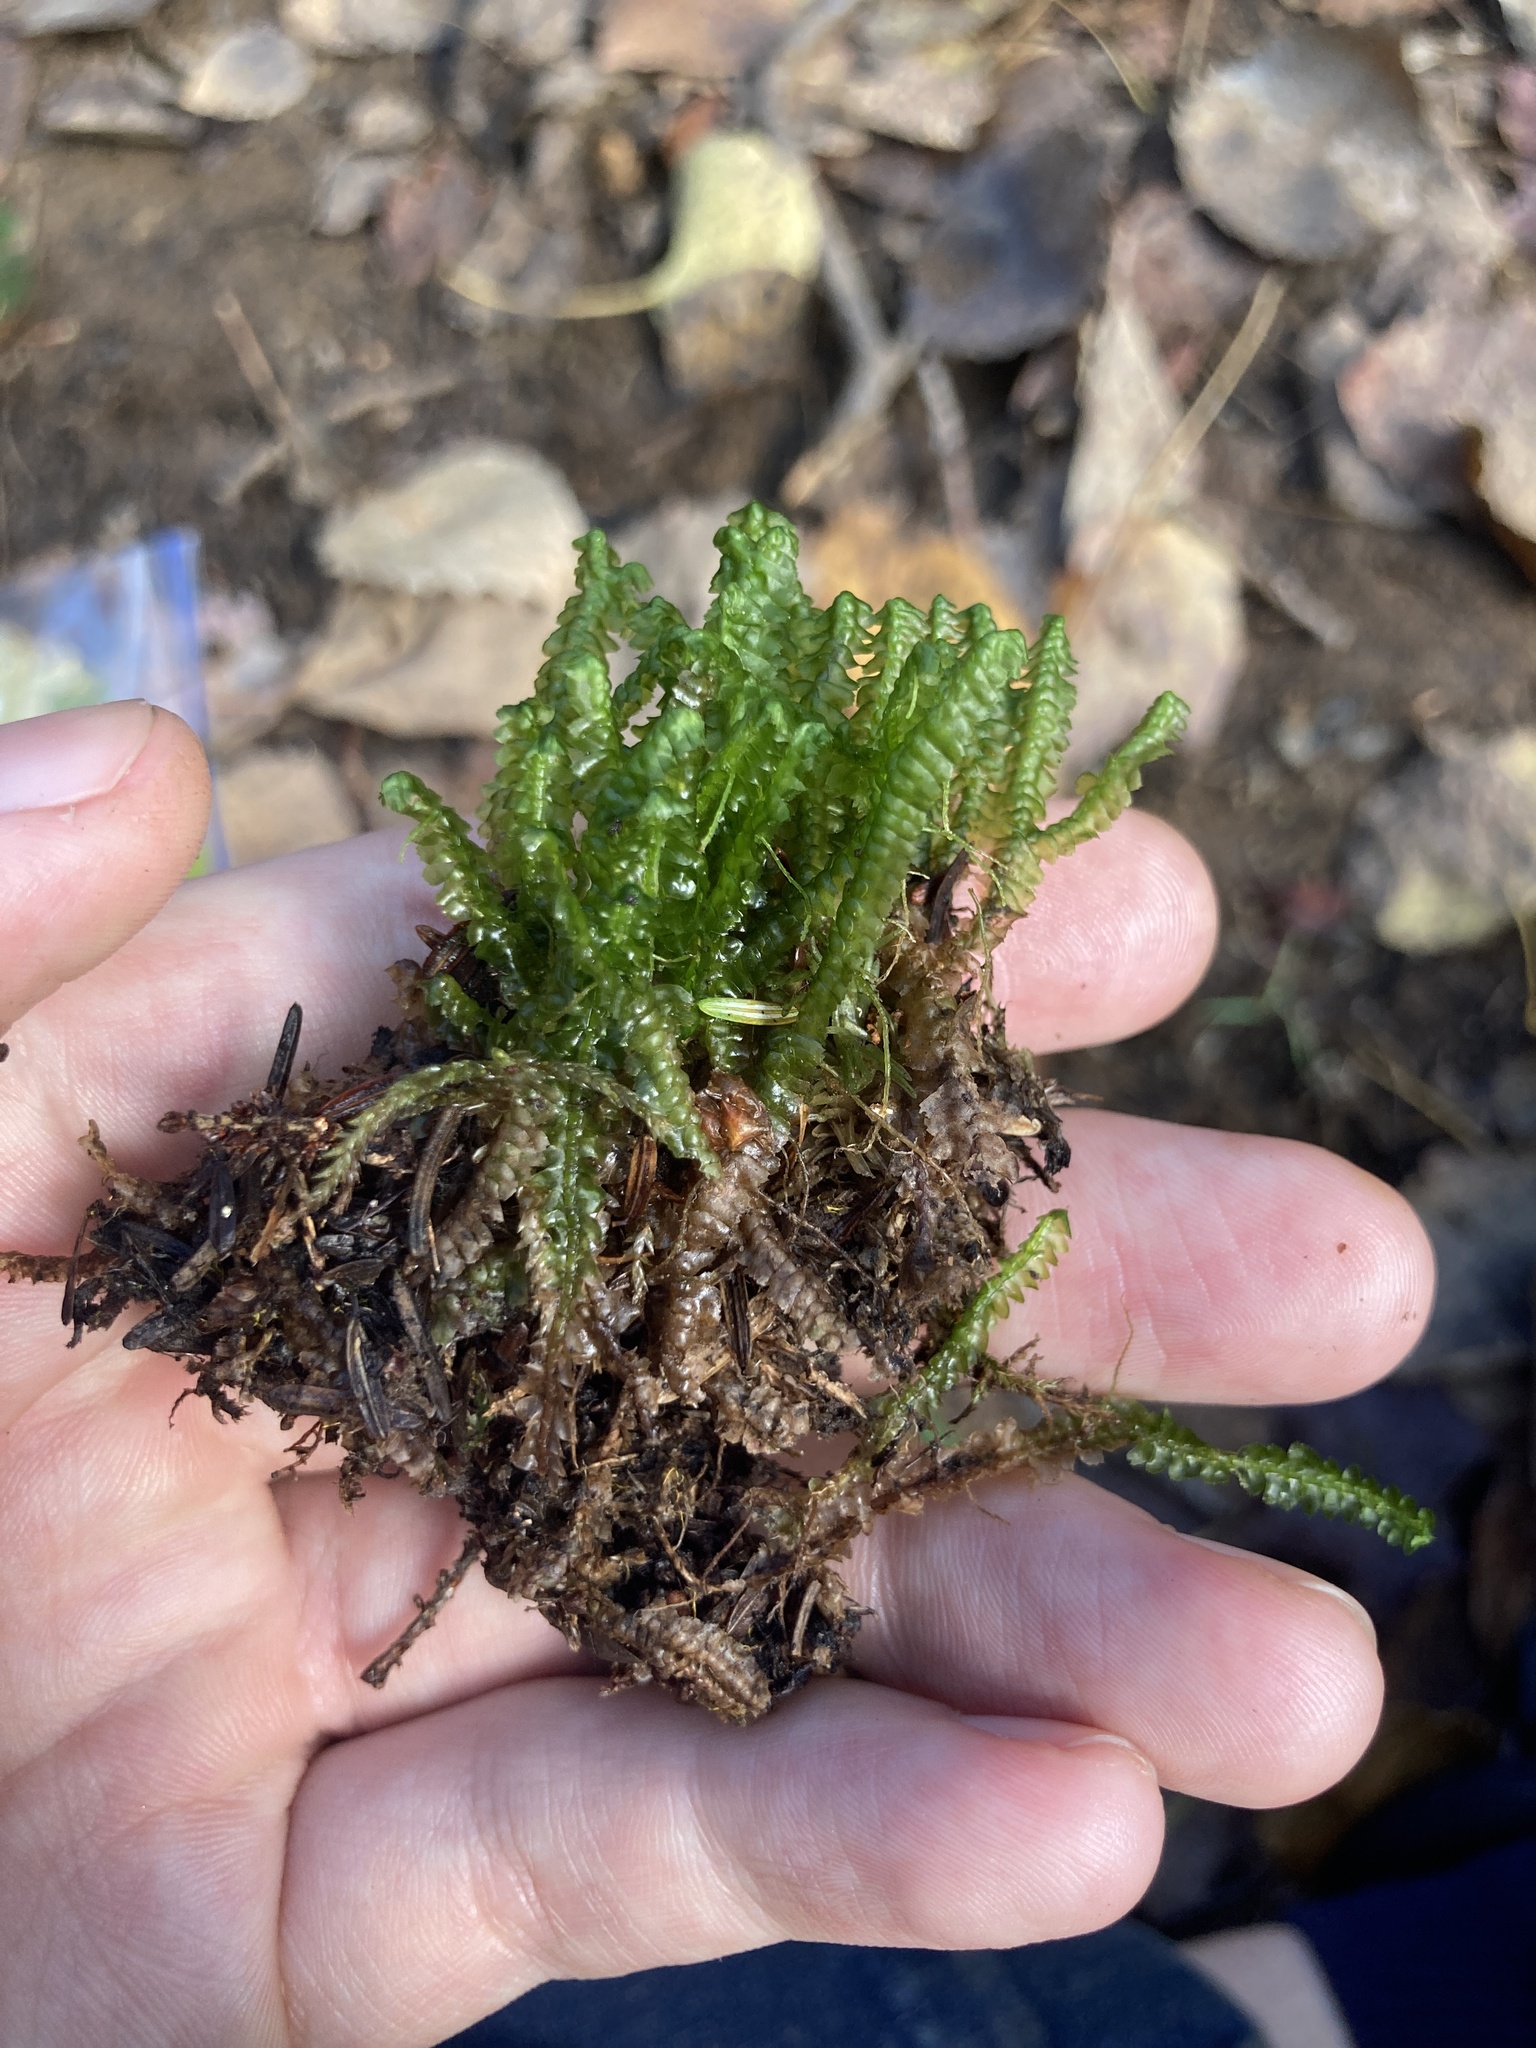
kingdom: Plantae
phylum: Marchantiophyta
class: Jungermanniopsida
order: Jungermanniales
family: Lepidoziaceae
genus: Bazzania
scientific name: Bazzania trilobata
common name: Three-lobed whipwort
